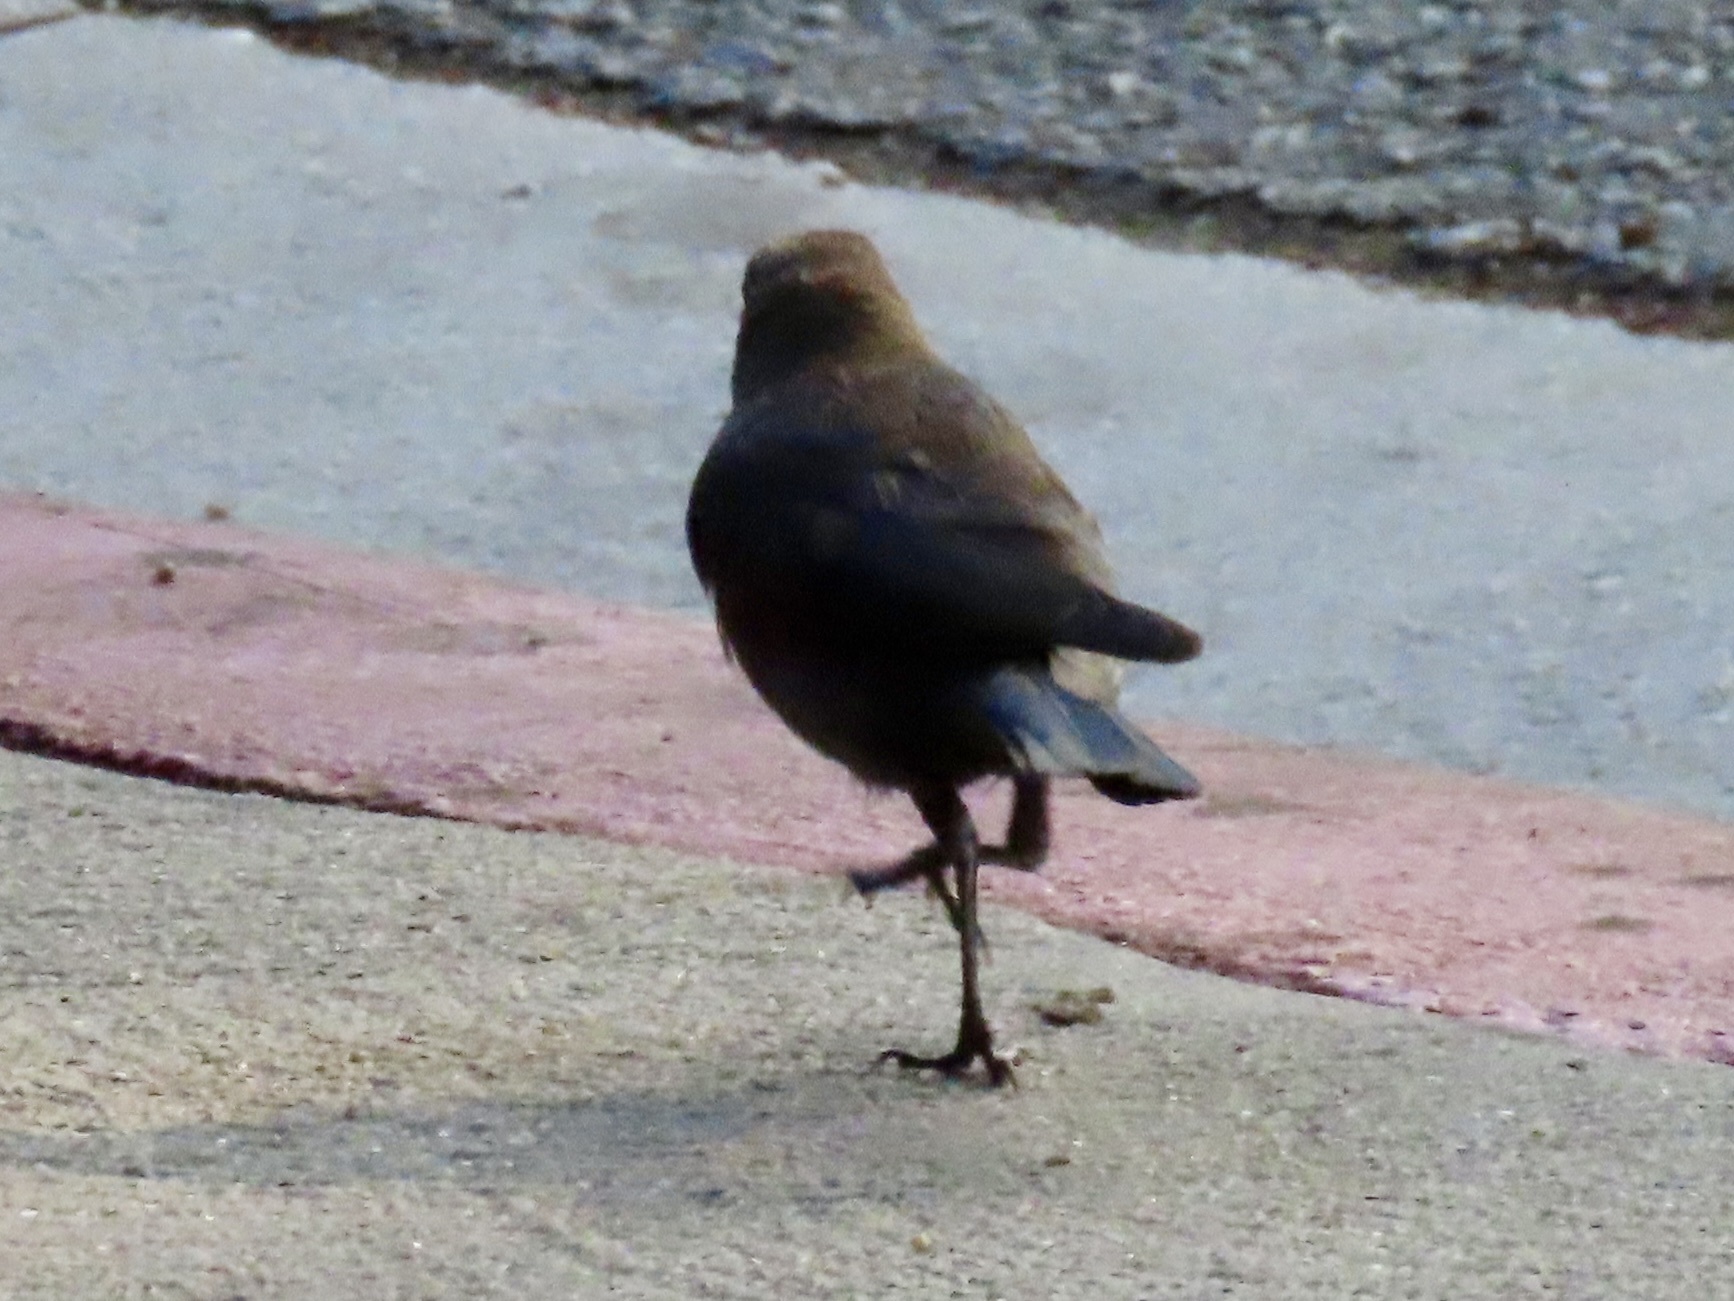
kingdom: Animalia
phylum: Chordata
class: Aves
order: Passeriformes
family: Icteridae
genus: Euphagus
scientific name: Euphagus cyanocephalus
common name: Brewer's blackbird
